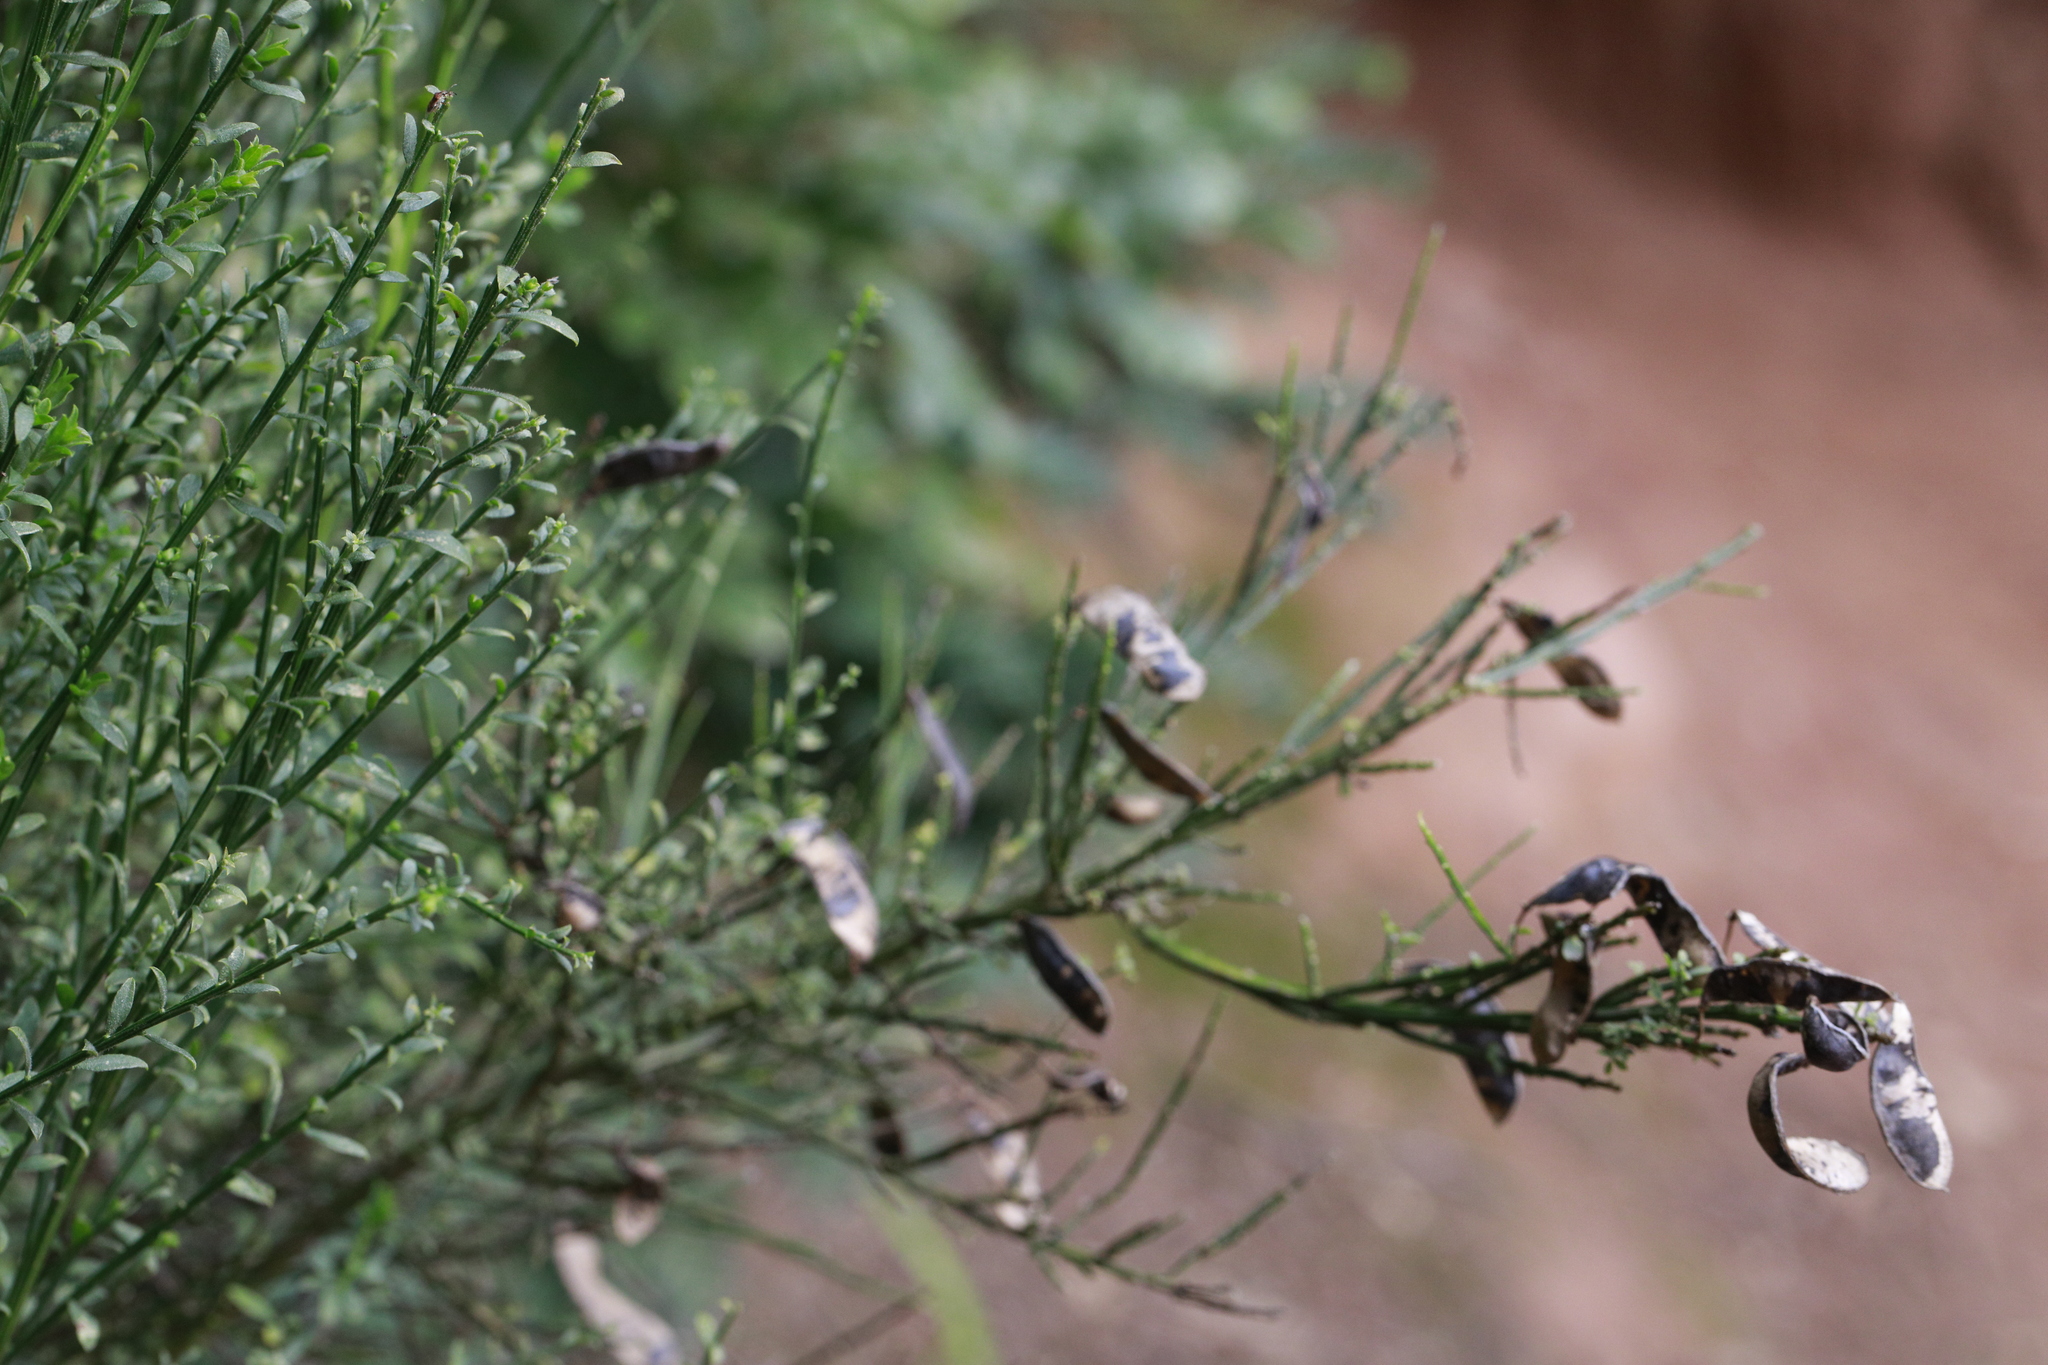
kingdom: Plantae
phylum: Tracheophyta
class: Magnoliopsida
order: Fabales
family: Fabaceae
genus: Cytisus
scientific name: Cytisus scoparius
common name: Scotch broom
